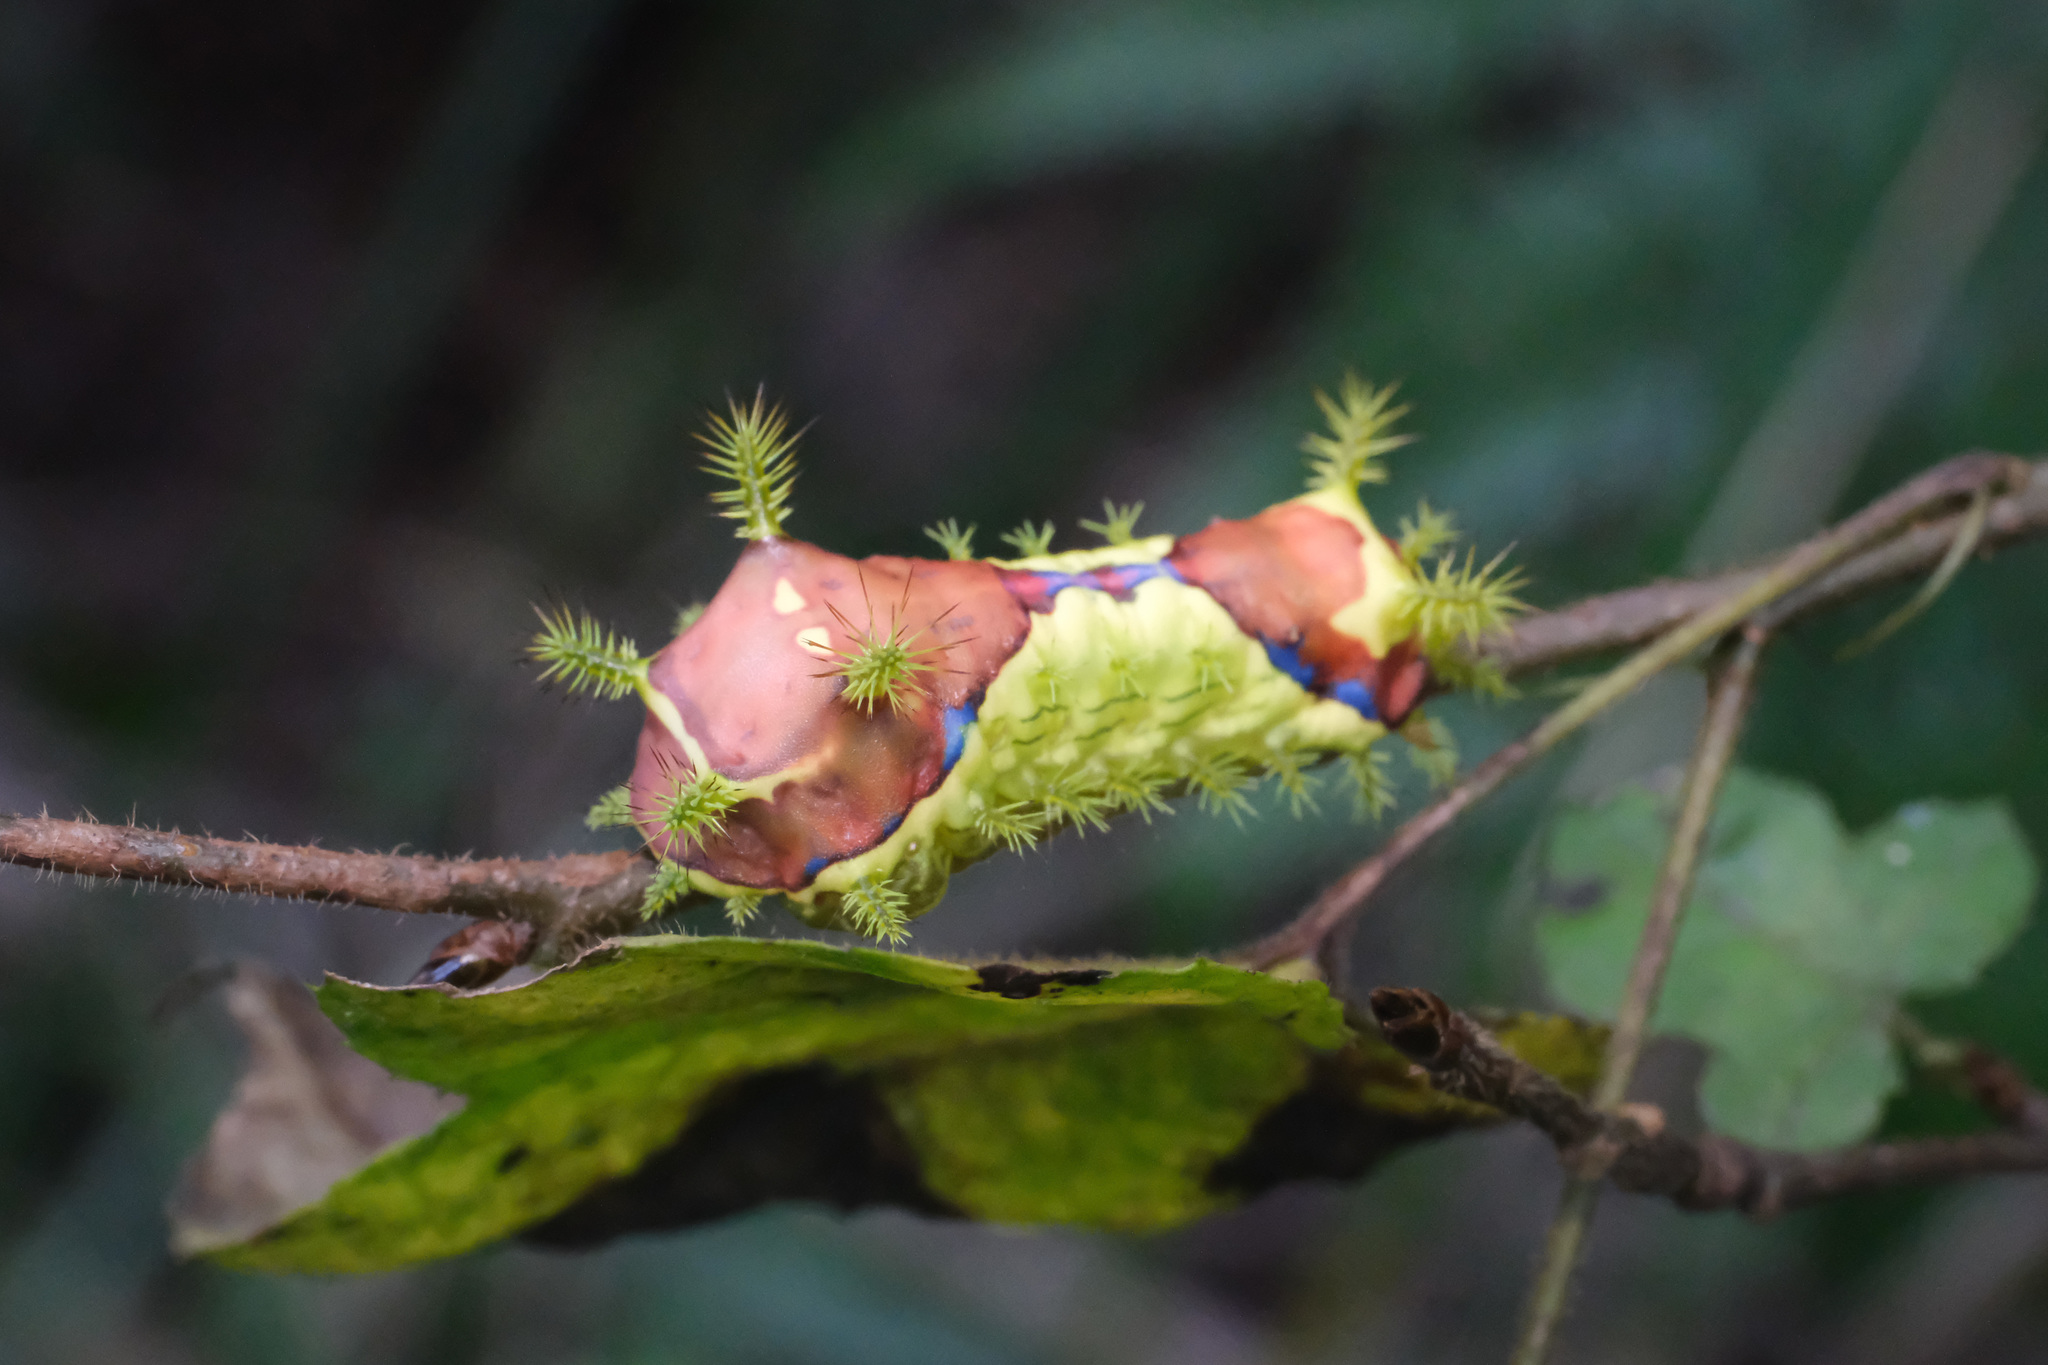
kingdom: Animalia
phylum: Arthropoda
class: Insecta
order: Lepidoptera
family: Limacodidae
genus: Monema
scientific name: Monema flavescens
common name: Oriental moth
